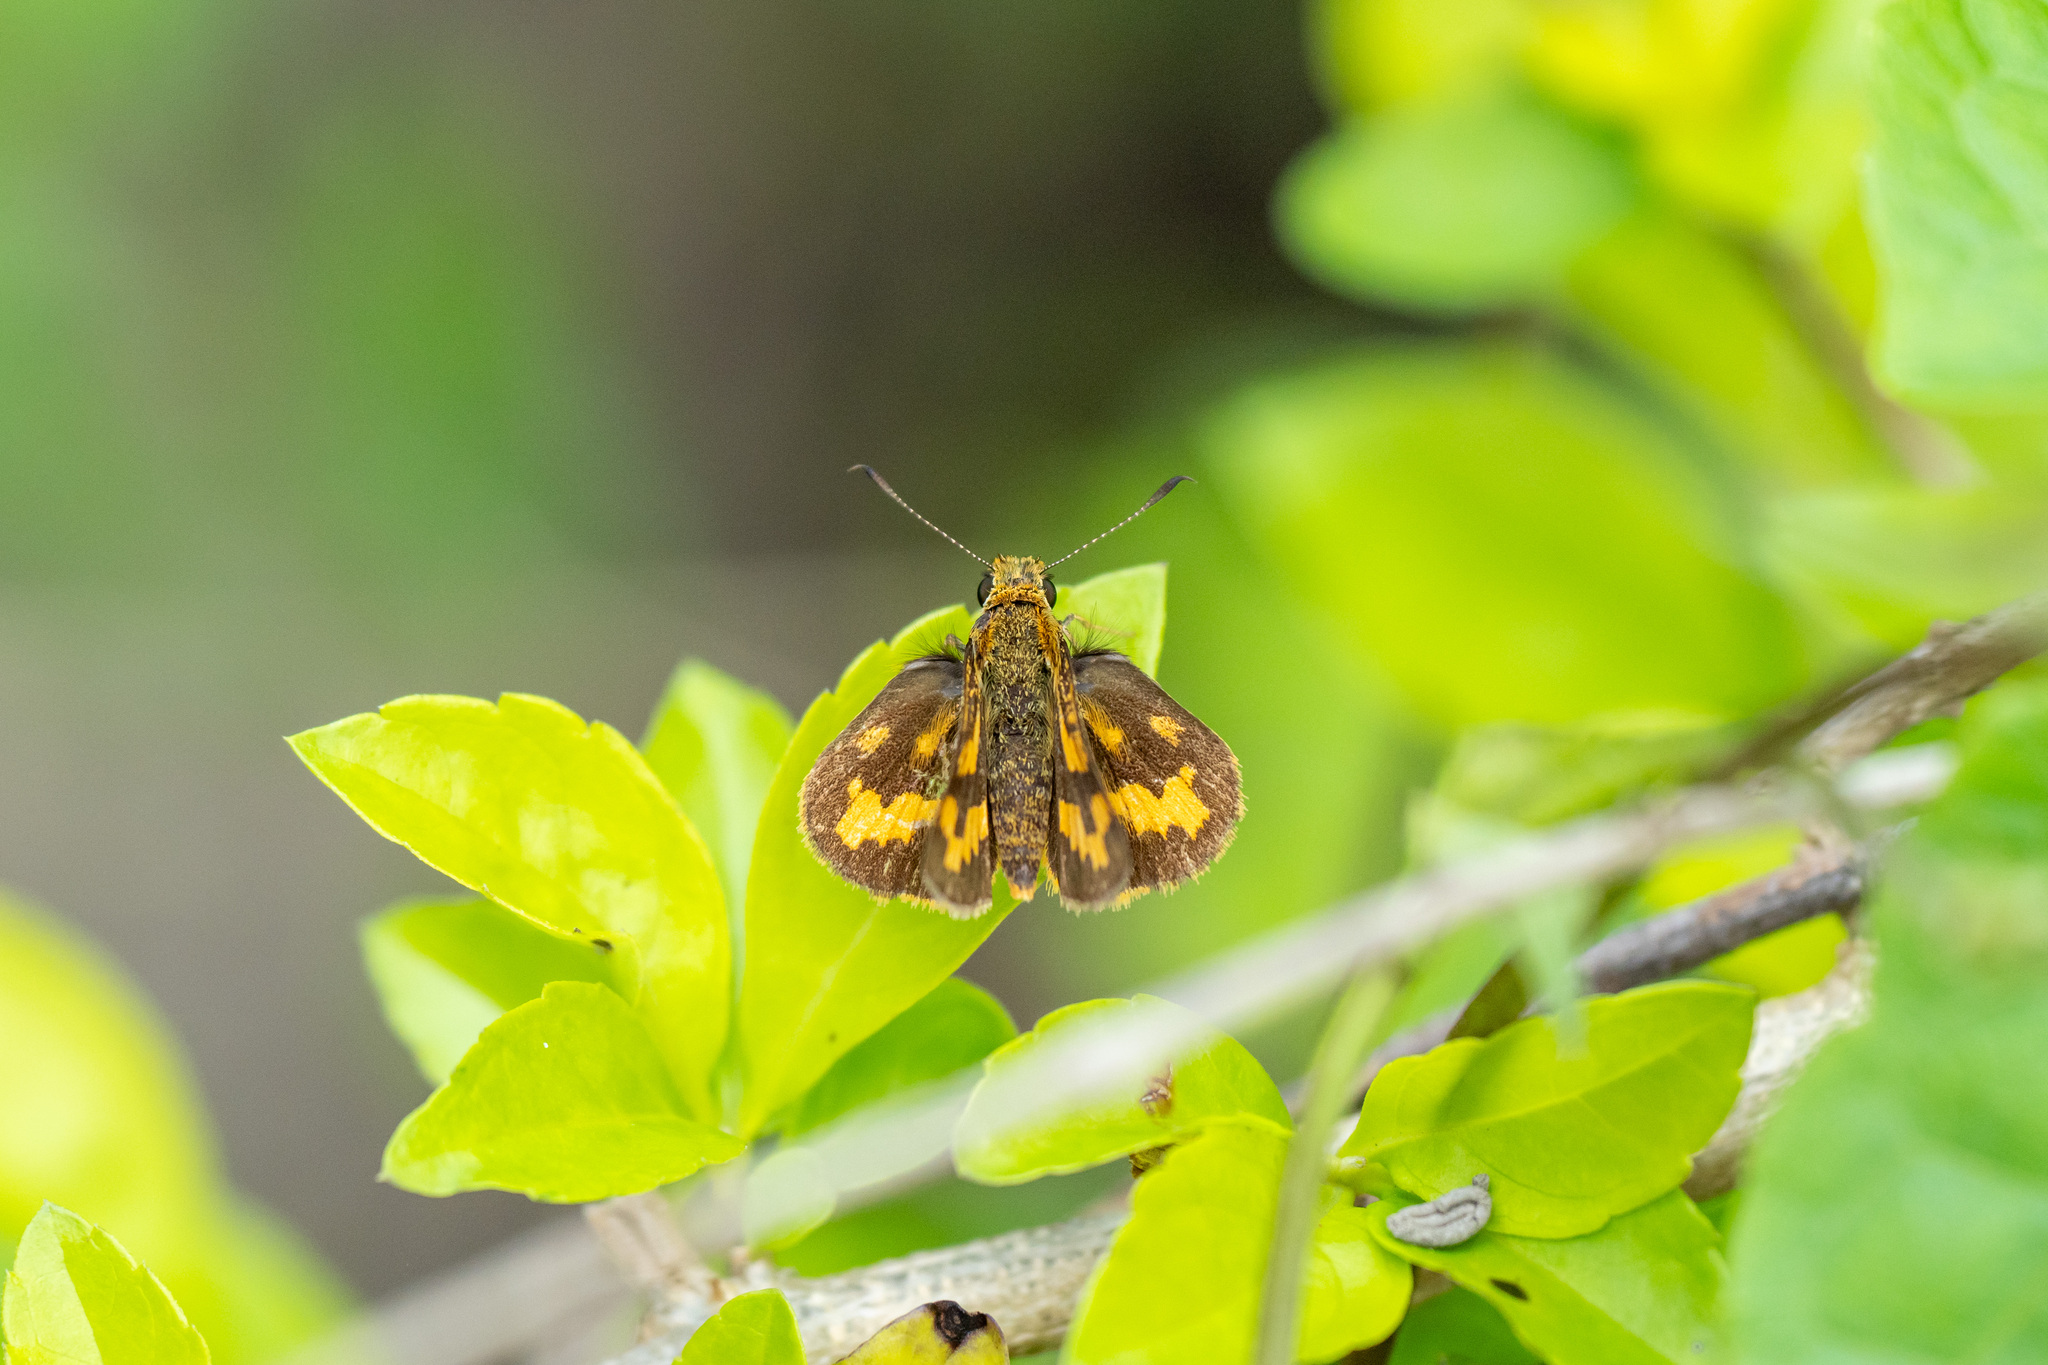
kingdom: Animalia
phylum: Arthropoda
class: Insecta
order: Lepidoptera
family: Hesperiidae
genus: Potanthus
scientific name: Potanthus pava
